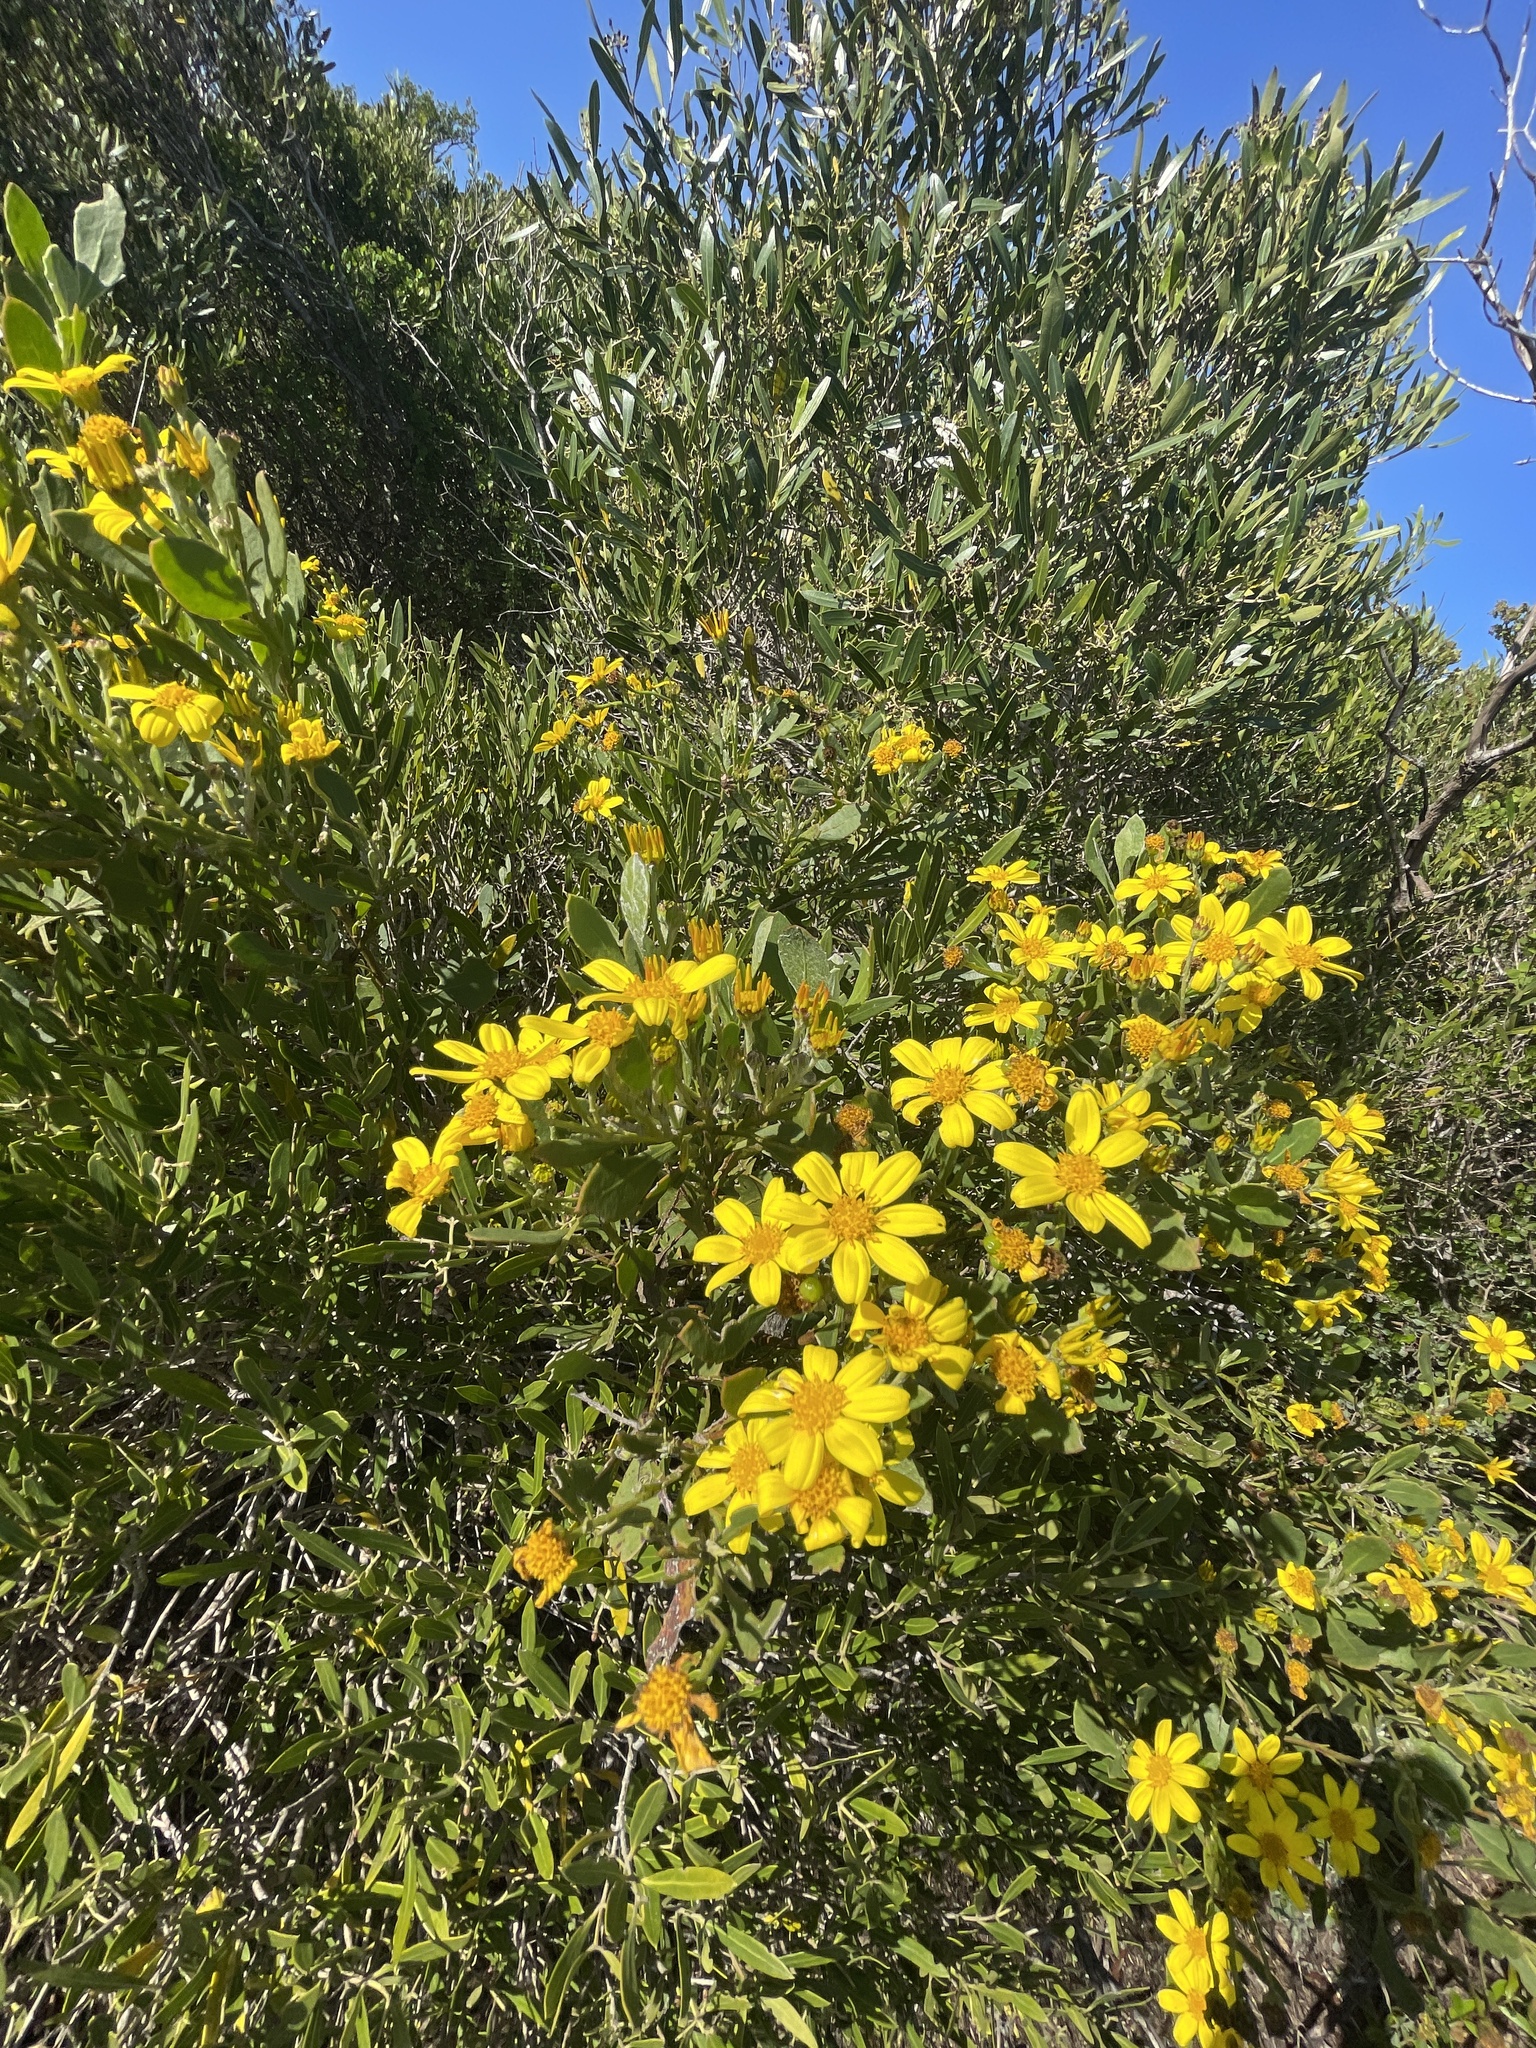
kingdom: Plantae
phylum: Tracheophyta
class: Magnoliopsida
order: Asterales
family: Asteraceae
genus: Osteospermum
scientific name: Osteospermum moniliferum
